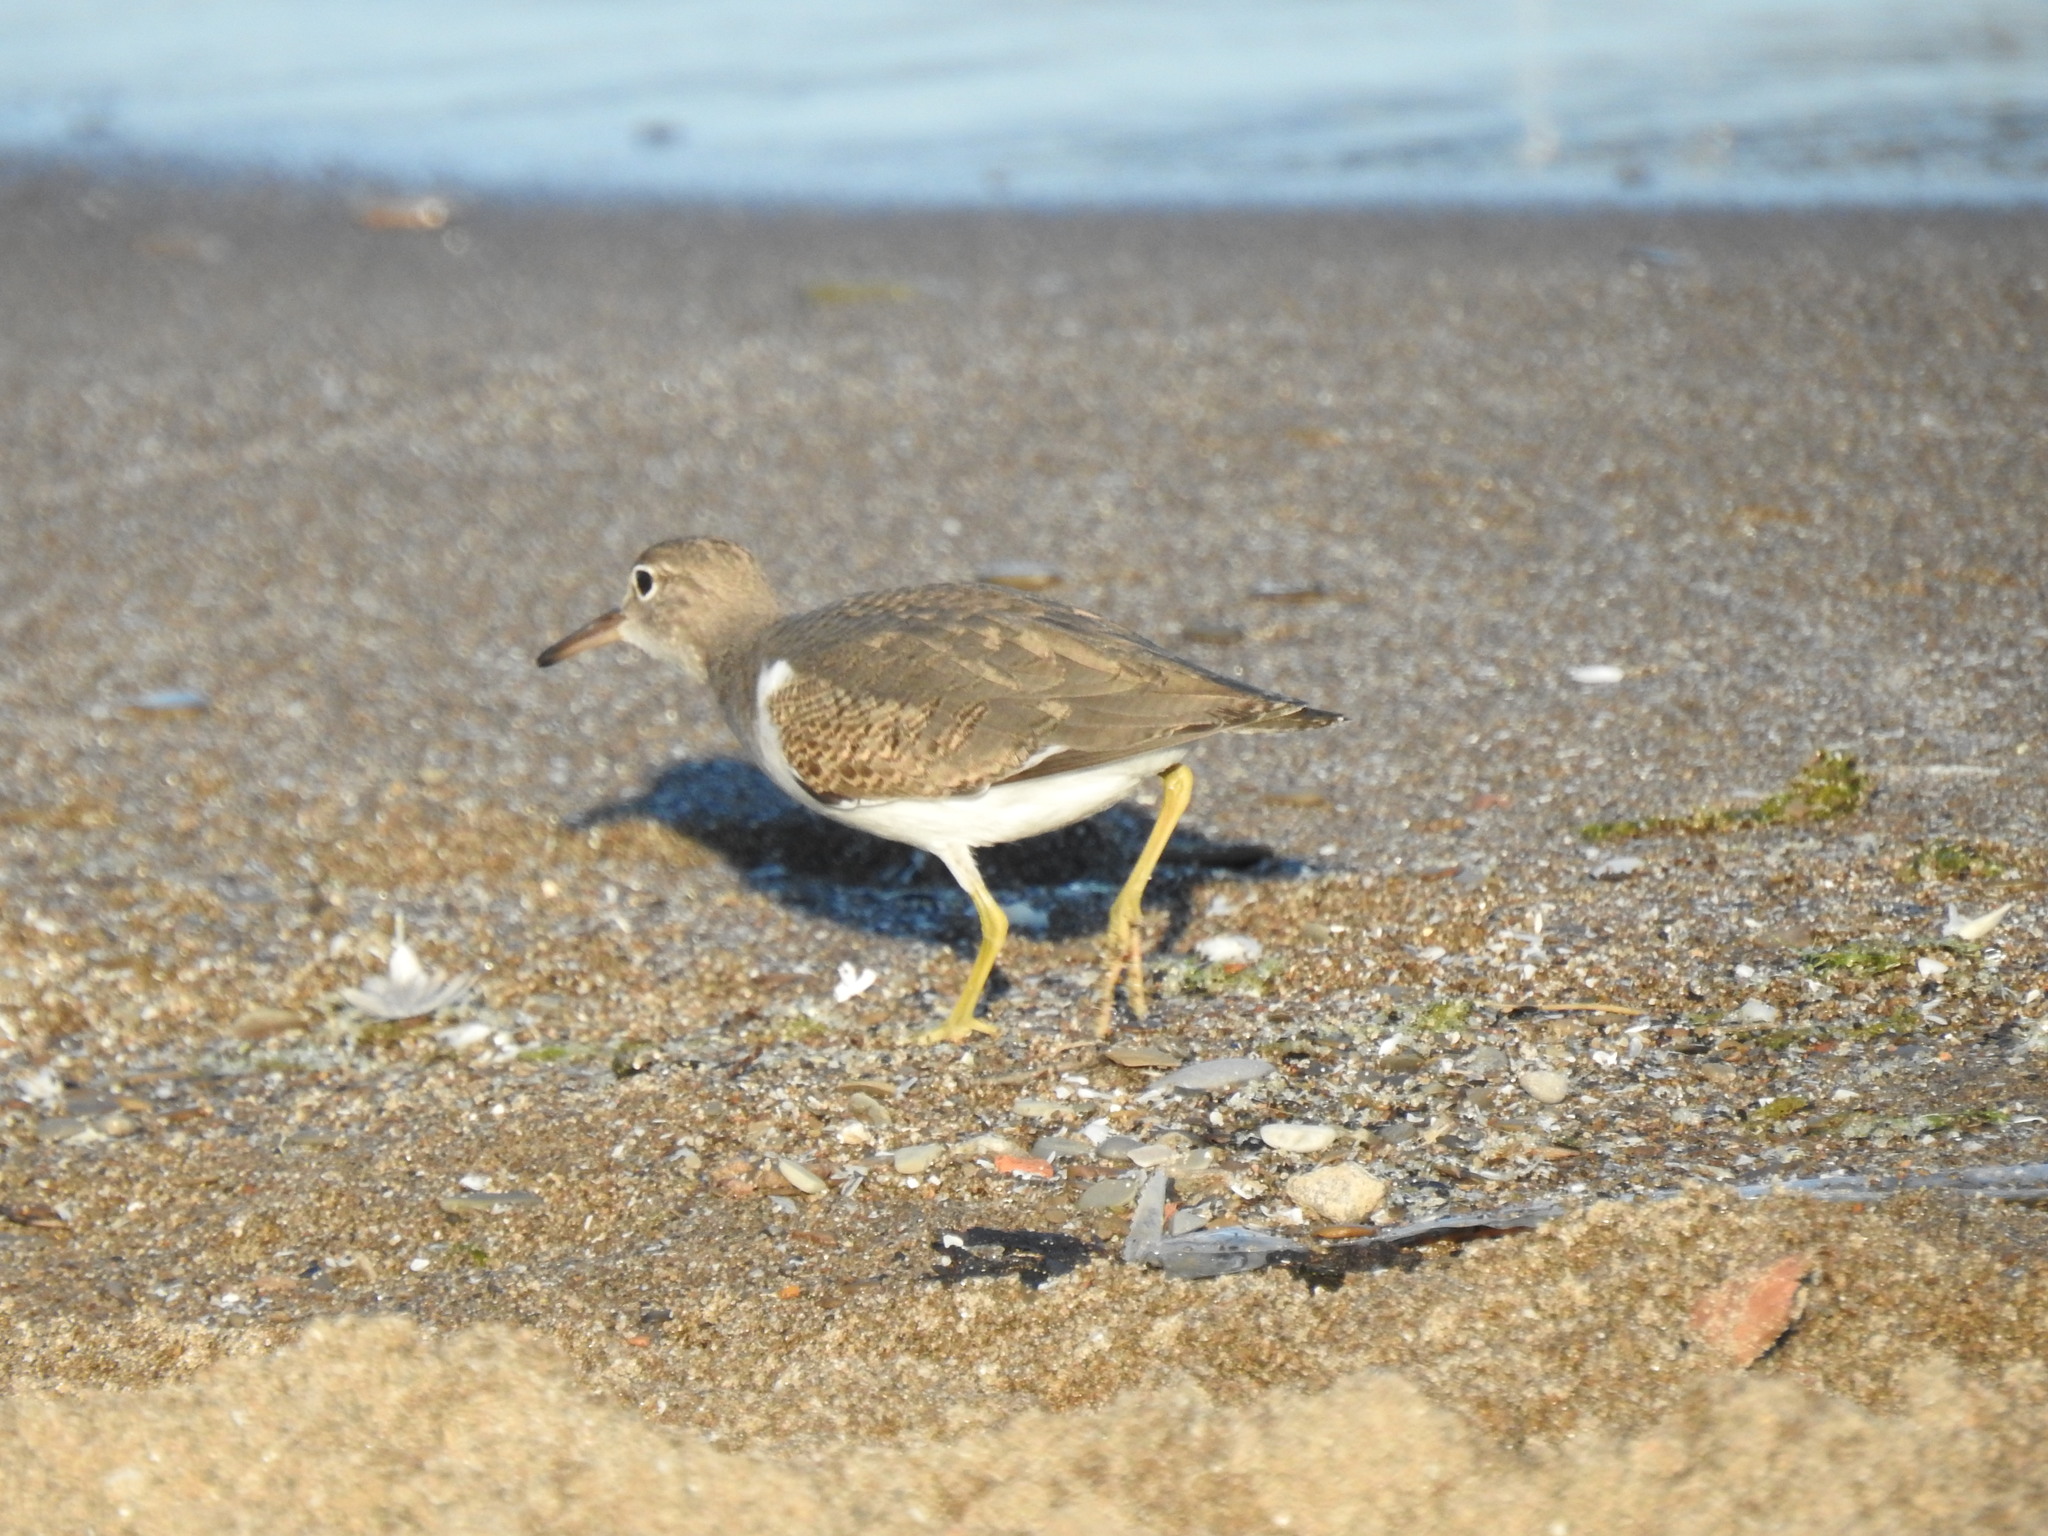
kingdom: Animalia
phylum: Chordata
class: Aves
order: Charadriiformes
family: Scolopacidae
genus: Actitis
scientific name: Actitis macularius
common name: Spotted sandpiper
